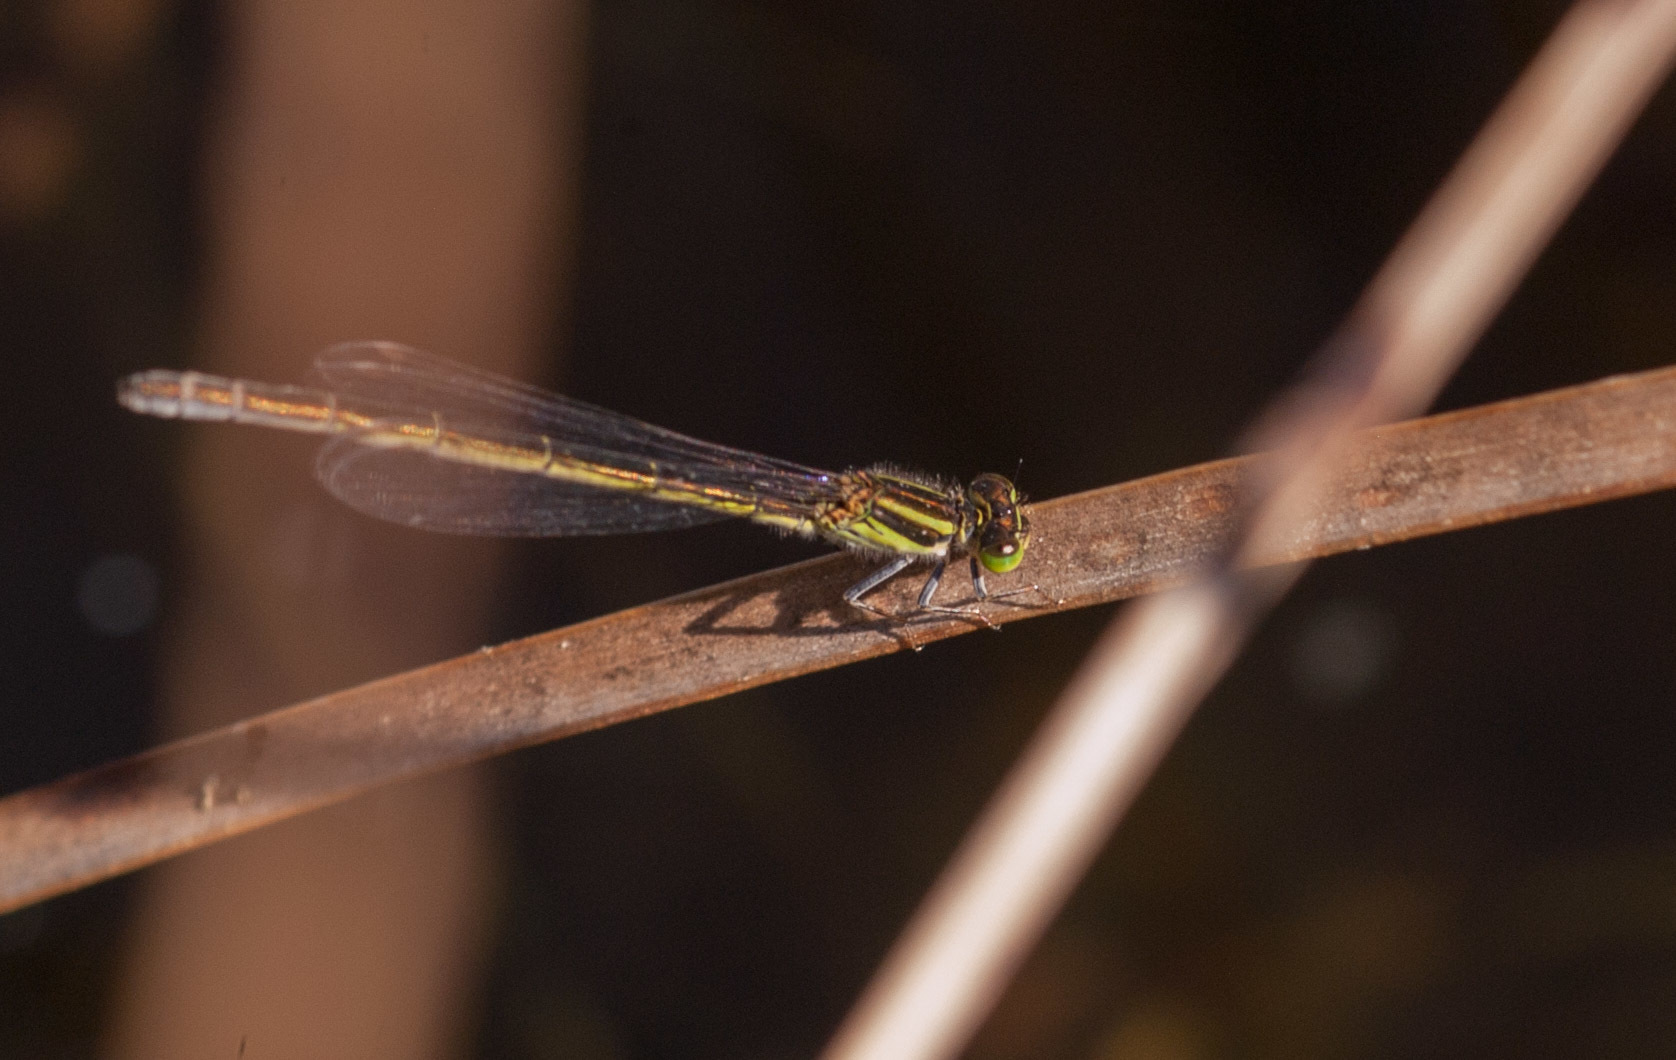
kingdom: Animalia
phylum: Arthropoda
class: Insecta
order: Odonata
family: Coenagrionidae
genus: Ischnura
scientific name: Ischnura aurora
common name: Gossamer damselfly
